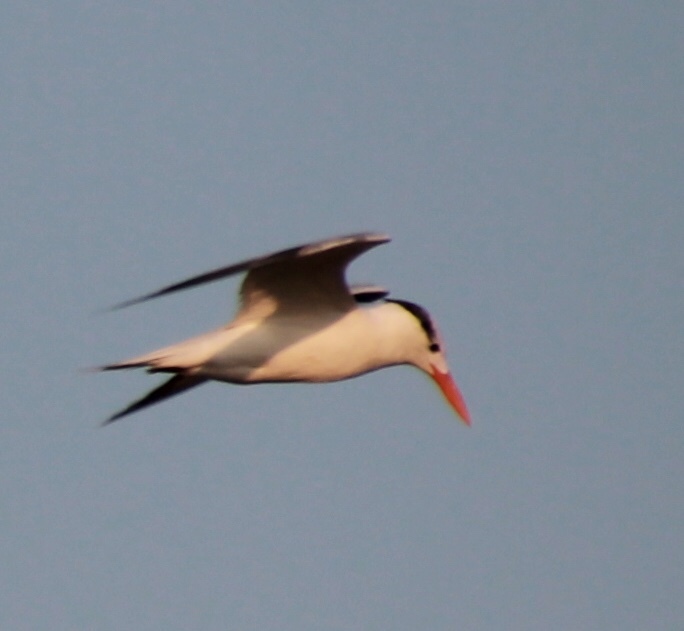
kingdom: Animalia
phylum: Chordata
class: Aves
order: Charadriiformes
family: Laridae
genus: Thalasseus
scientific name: Thalasseus maximus
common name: Royal tern
